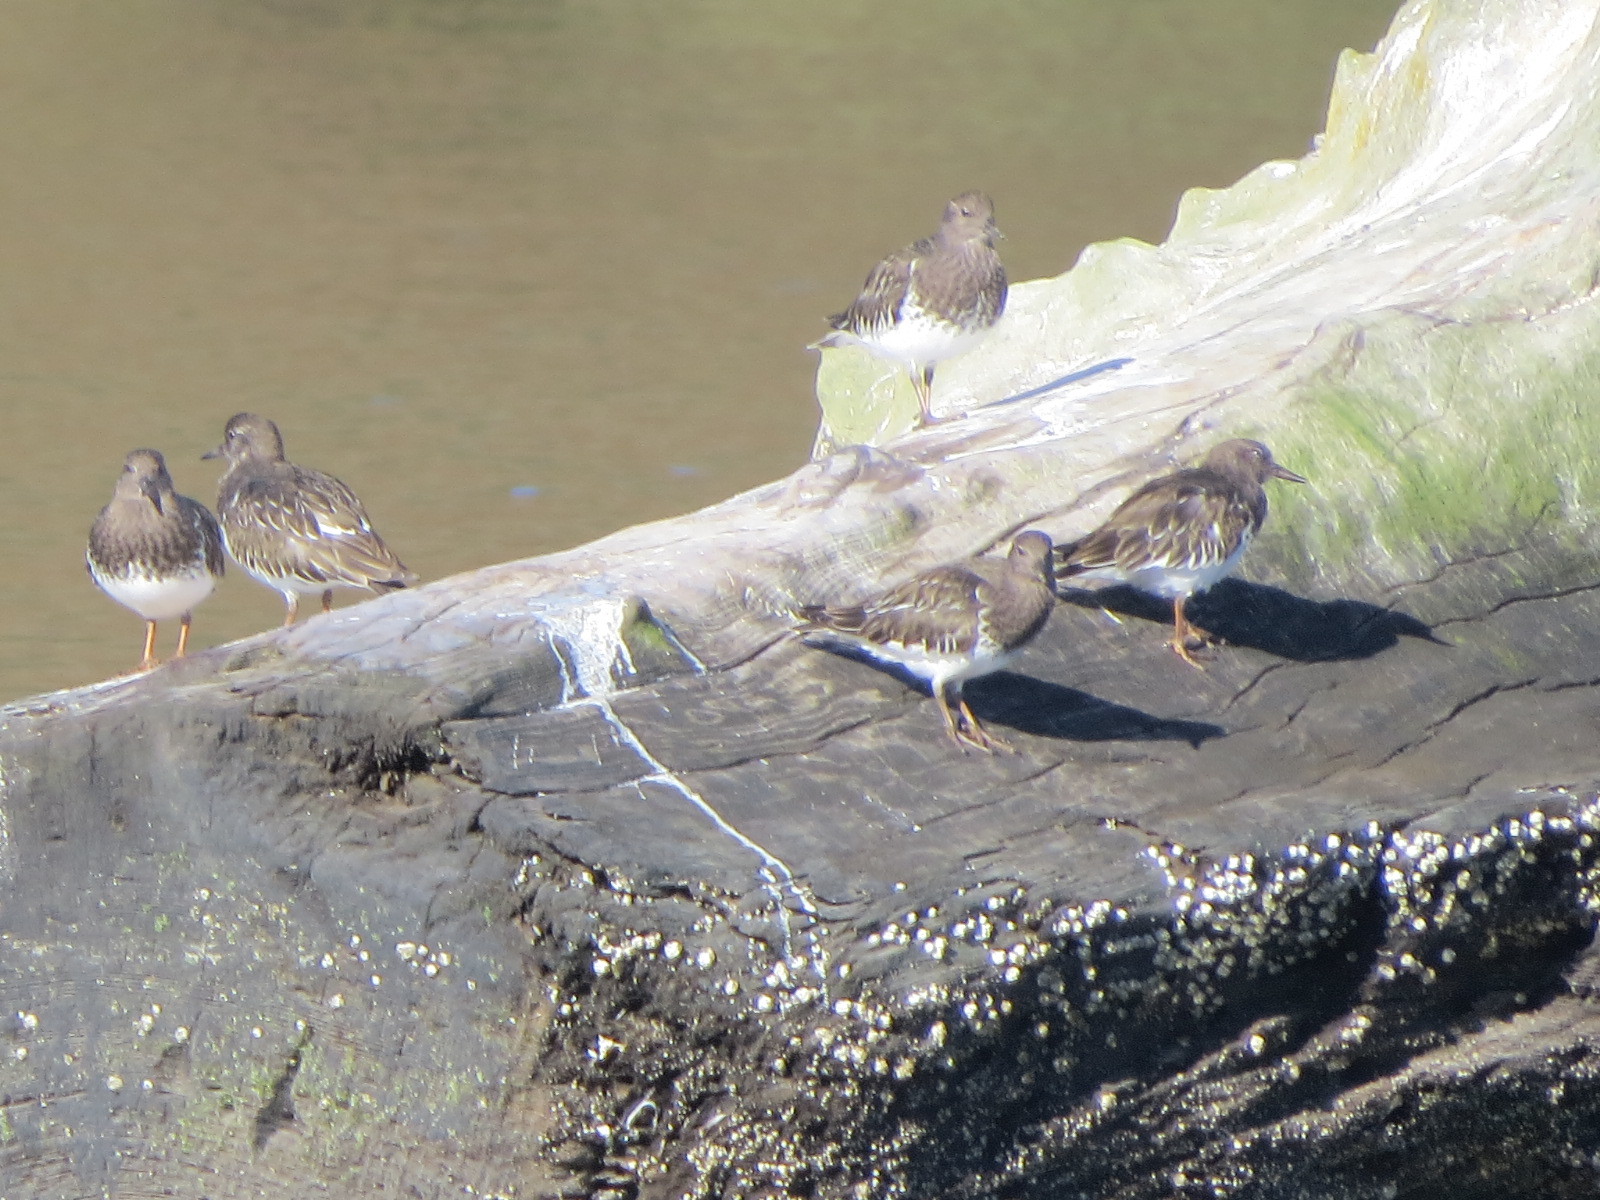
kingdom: Animalia
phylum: Chordata
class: Aves
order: Charadriiformes
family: Scolopacidae
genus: Arenaria
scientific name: Arenaria melanocephala
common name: Black turnstone
